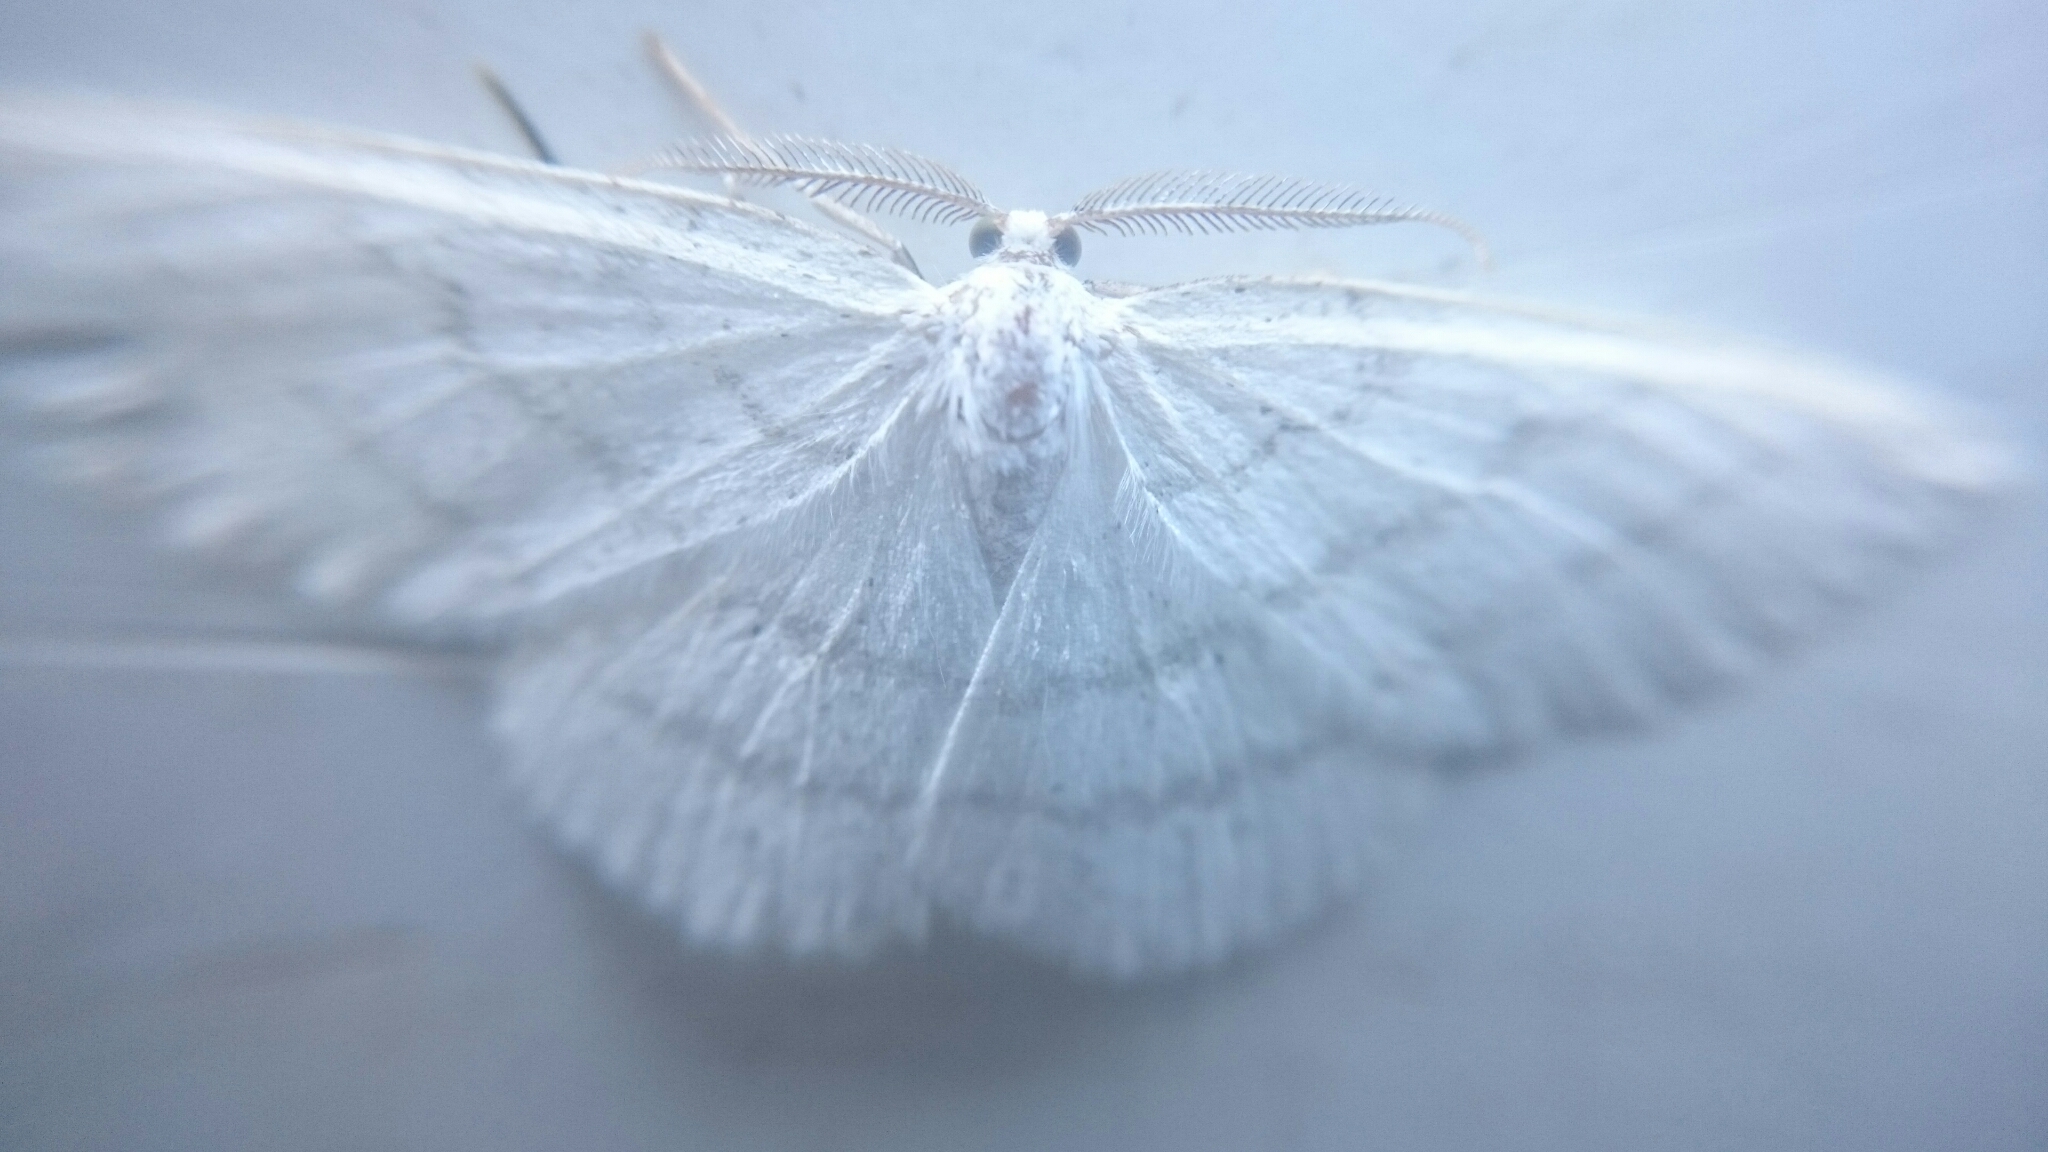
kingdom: Animalia
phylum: Arthropoda
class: Insecta
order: Lepidoptera
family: Geometridae
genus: Cabera
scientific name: Cabera pusaria
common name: Common white wave
